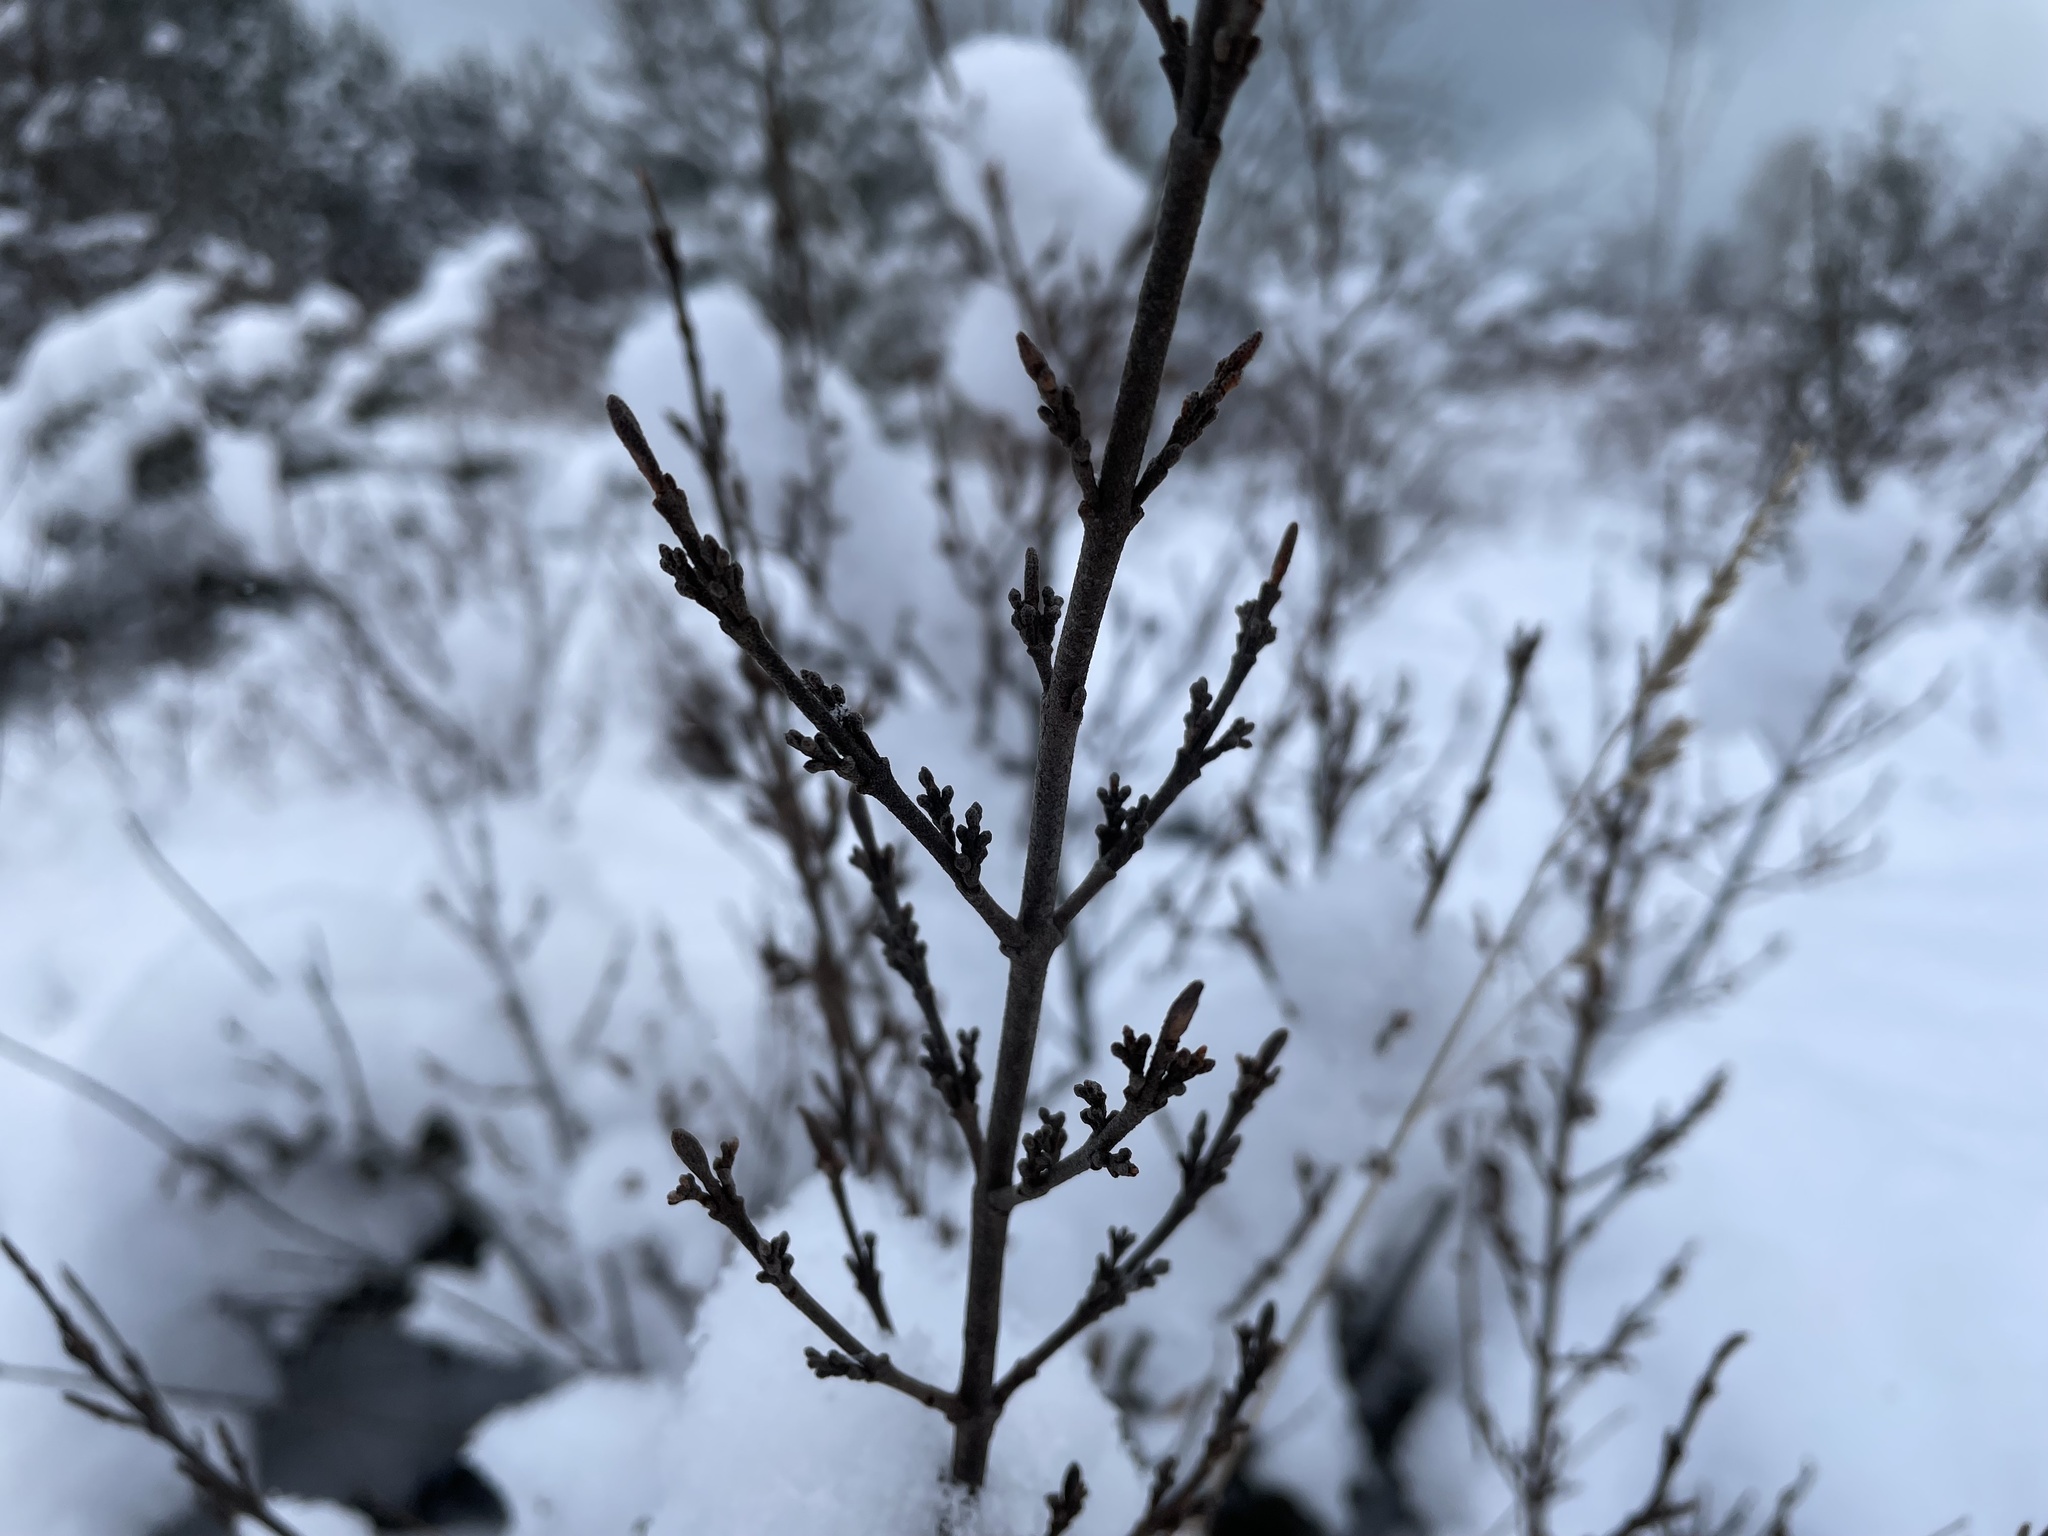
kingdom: Plantae
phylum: Tracheophyta
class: Magnoliopsida
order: Rosales
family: Elaeagnaceae
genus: Shepherdia
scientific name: Shepherdia canadensis
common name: Soapberry
